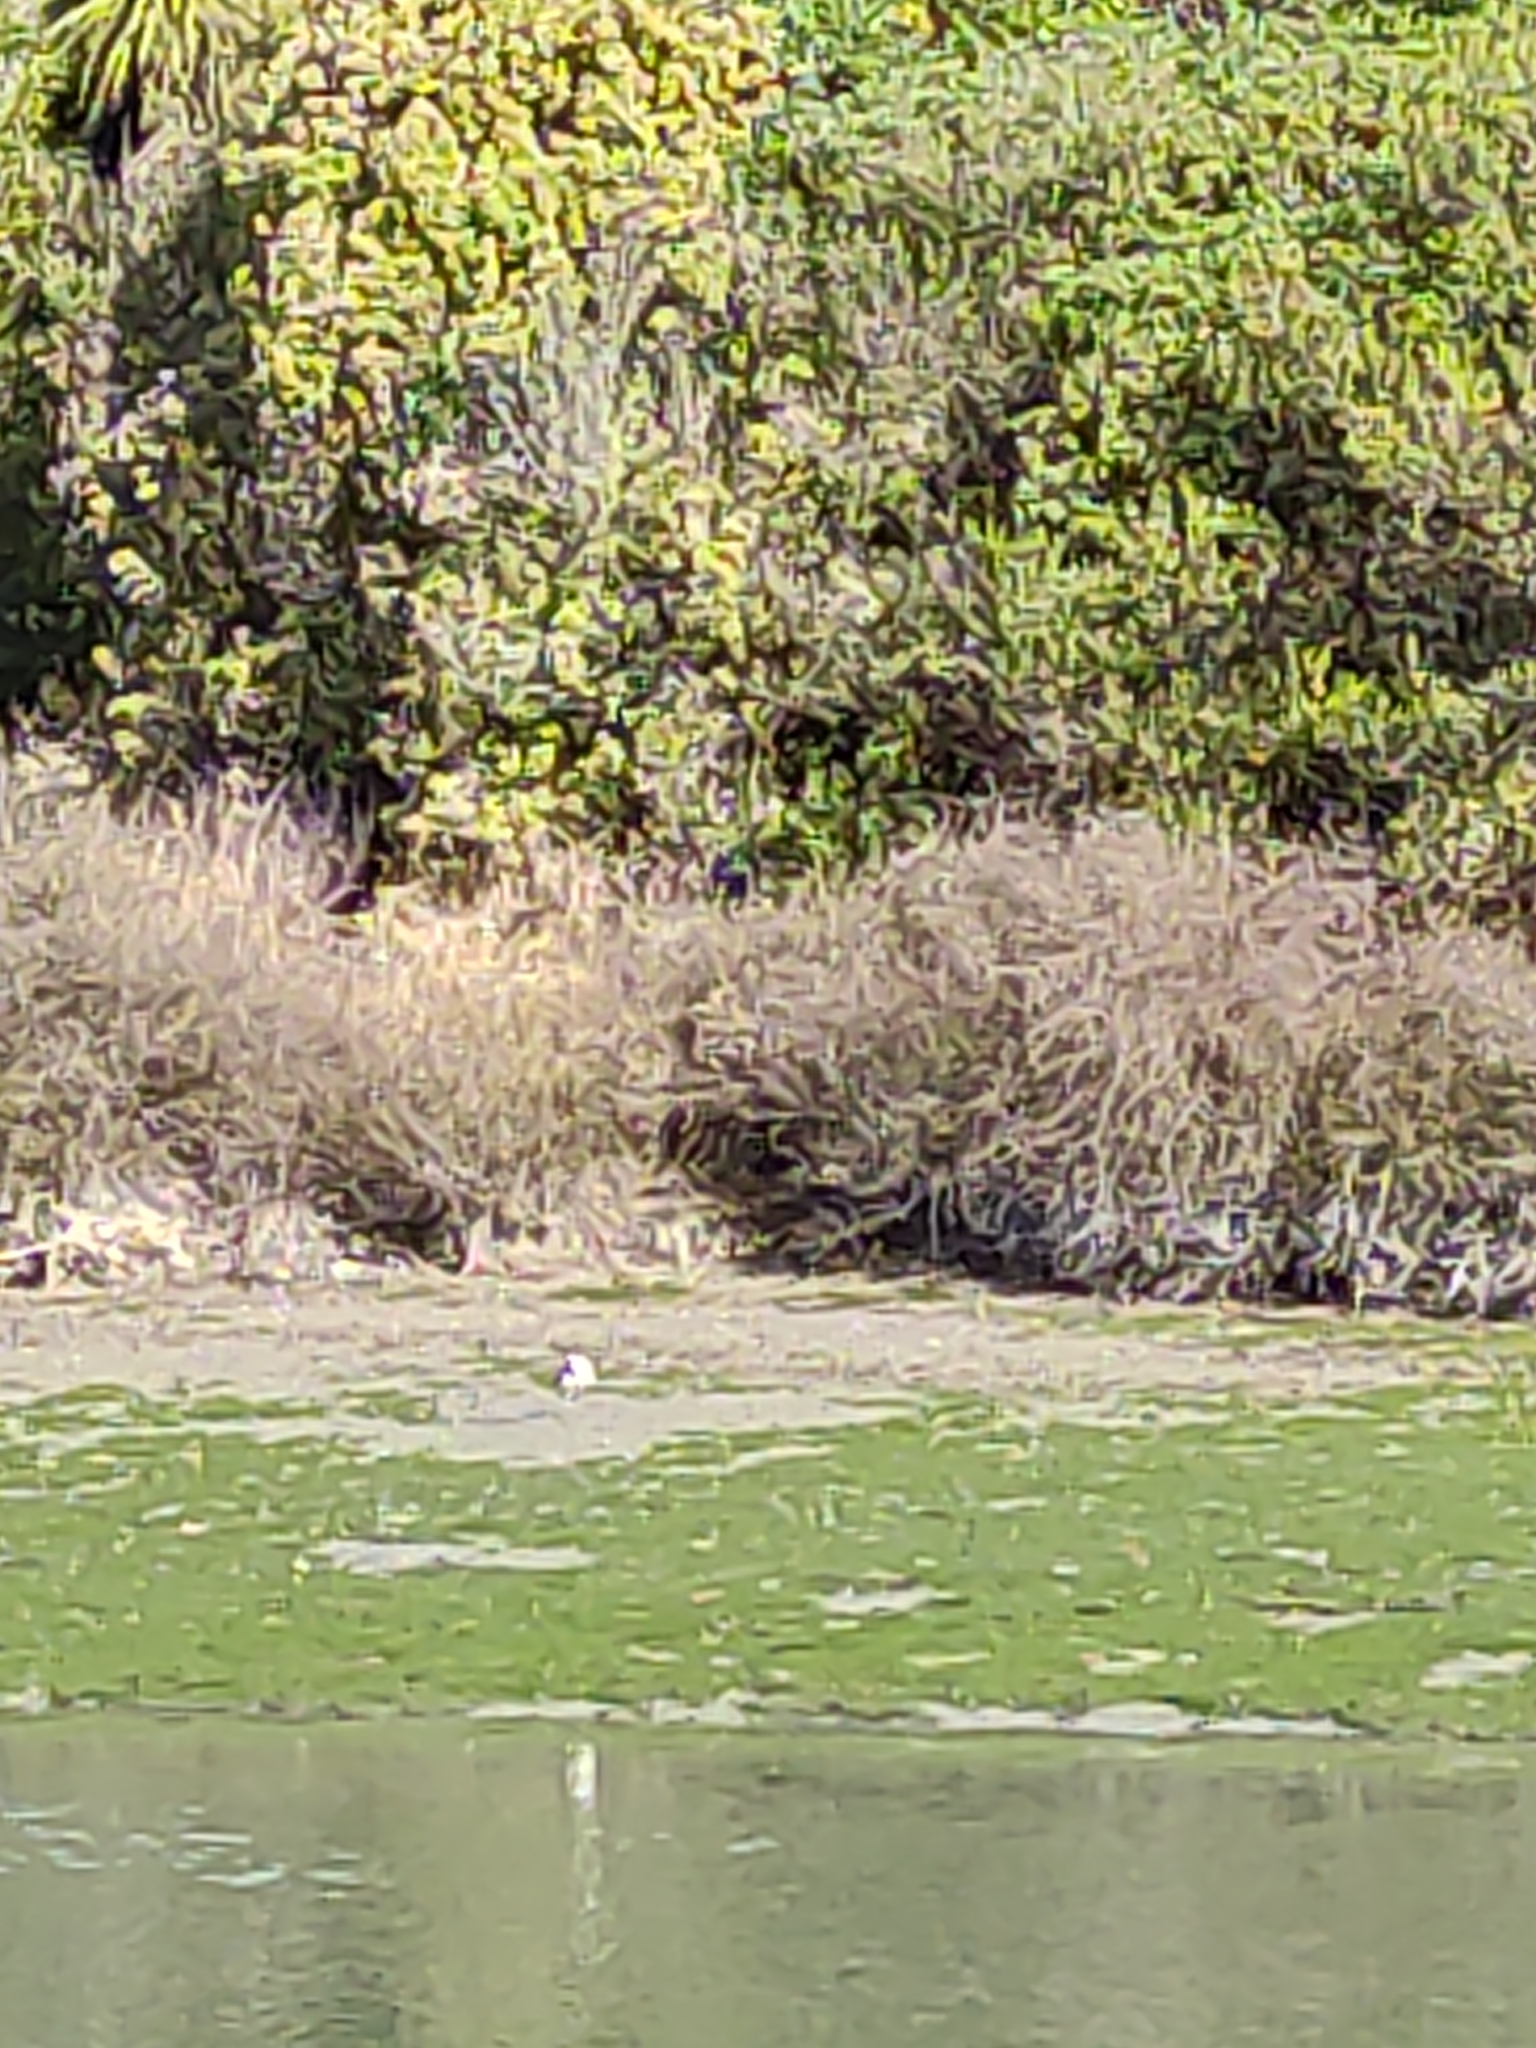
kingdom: Plantae
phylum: Tracheophyta
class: Magnoliopsida
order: Malvales
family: Malvaceae
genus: Plagianthus
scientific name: Plagianthus divaricatus
